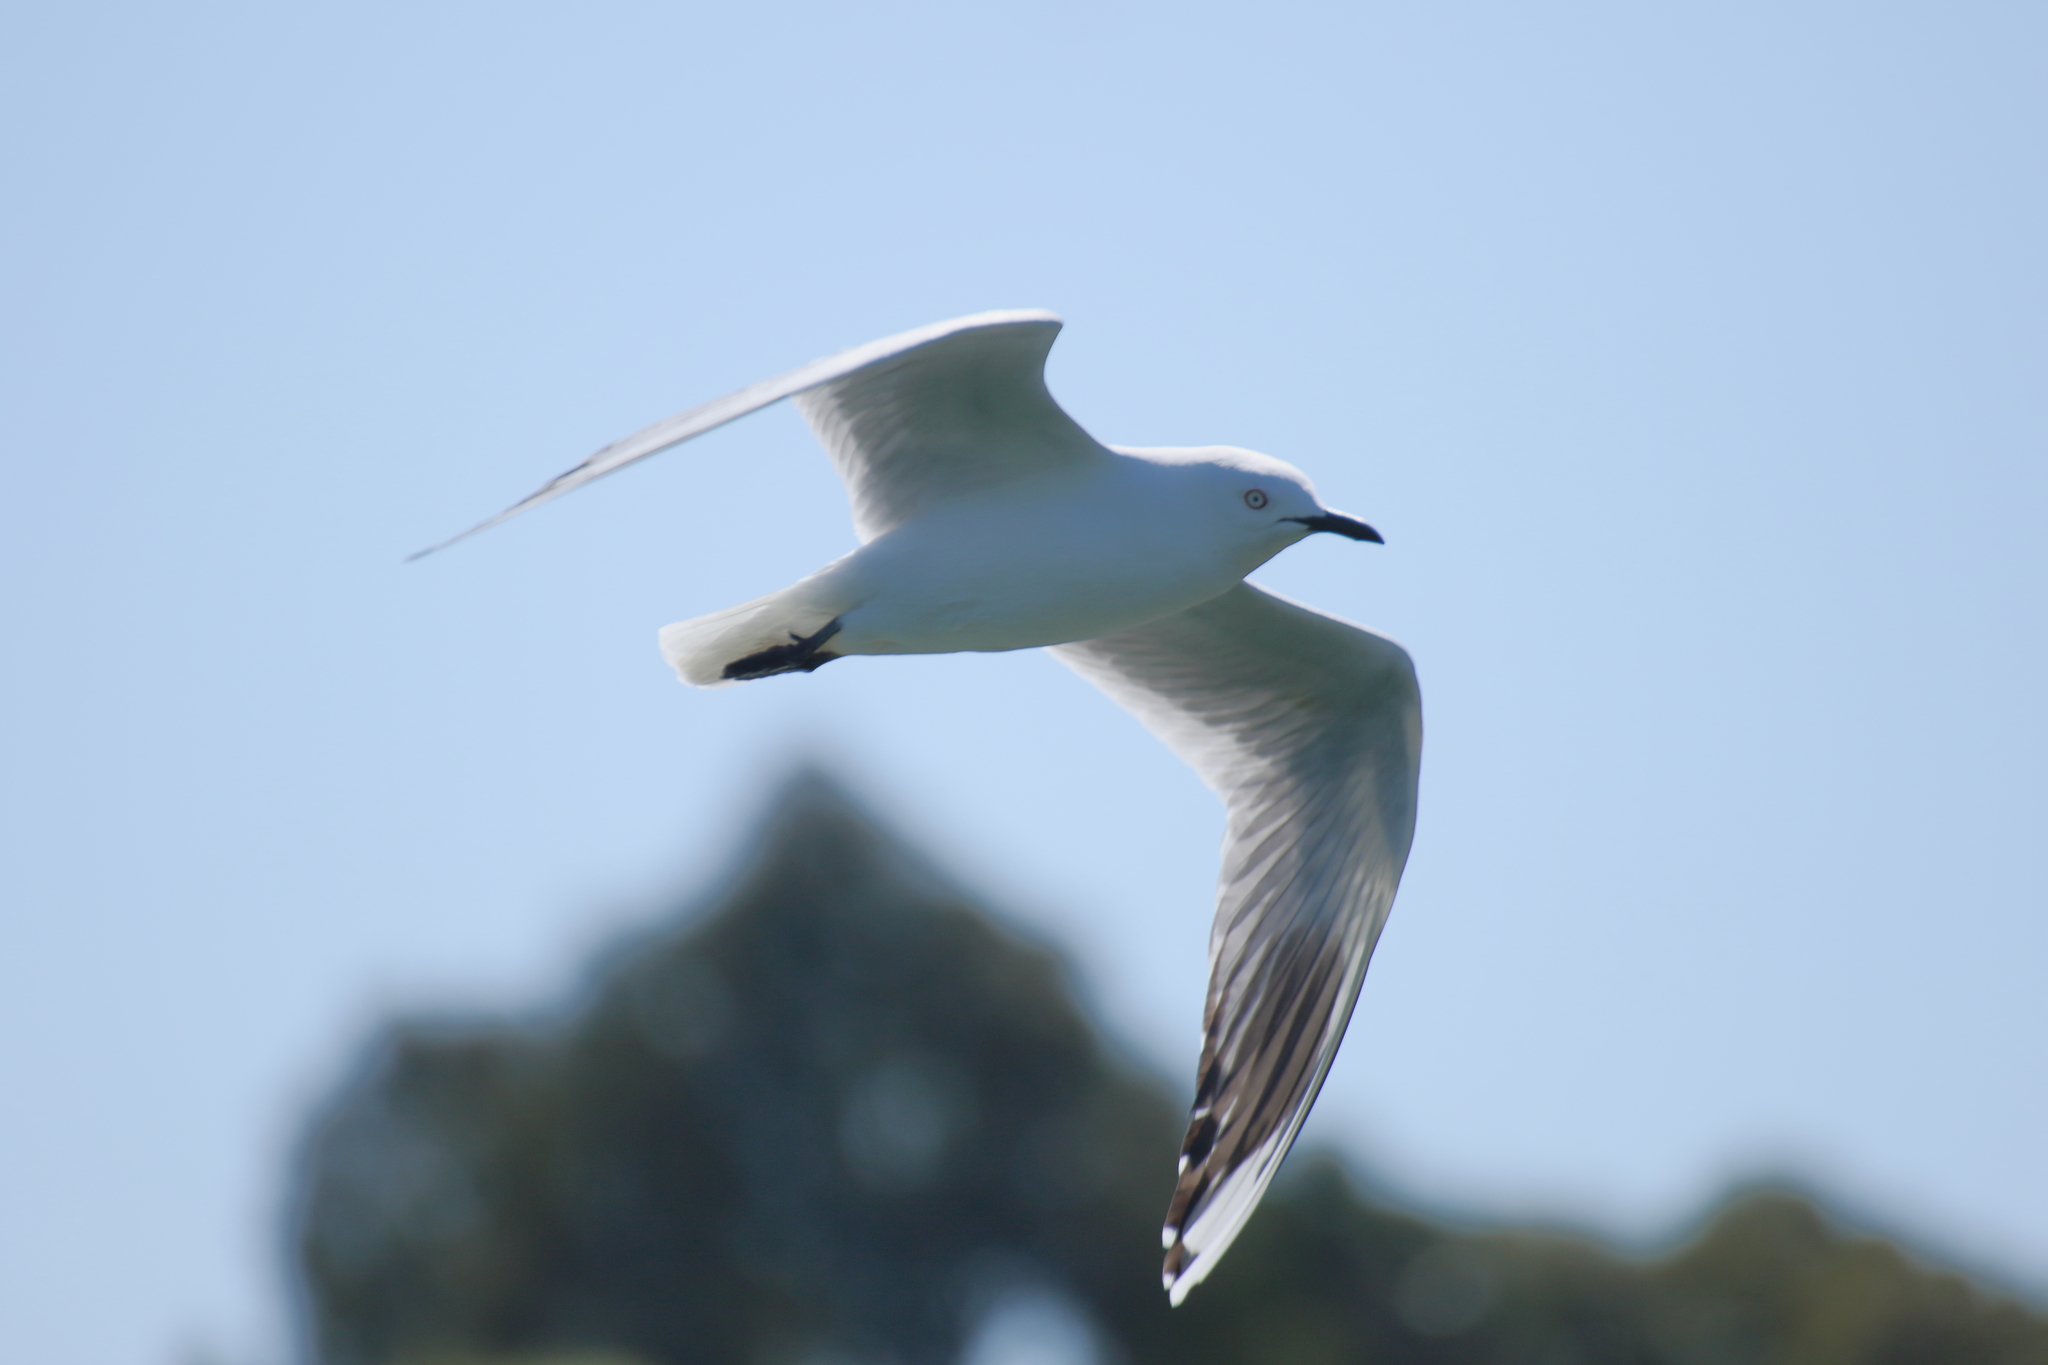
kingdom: Animalia
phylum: Chordata
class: Aves
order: Charadriiformes
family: Laridae
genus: Chroicocephalus
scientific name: Chroicocephalus bulleri
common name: Black-billed gull
